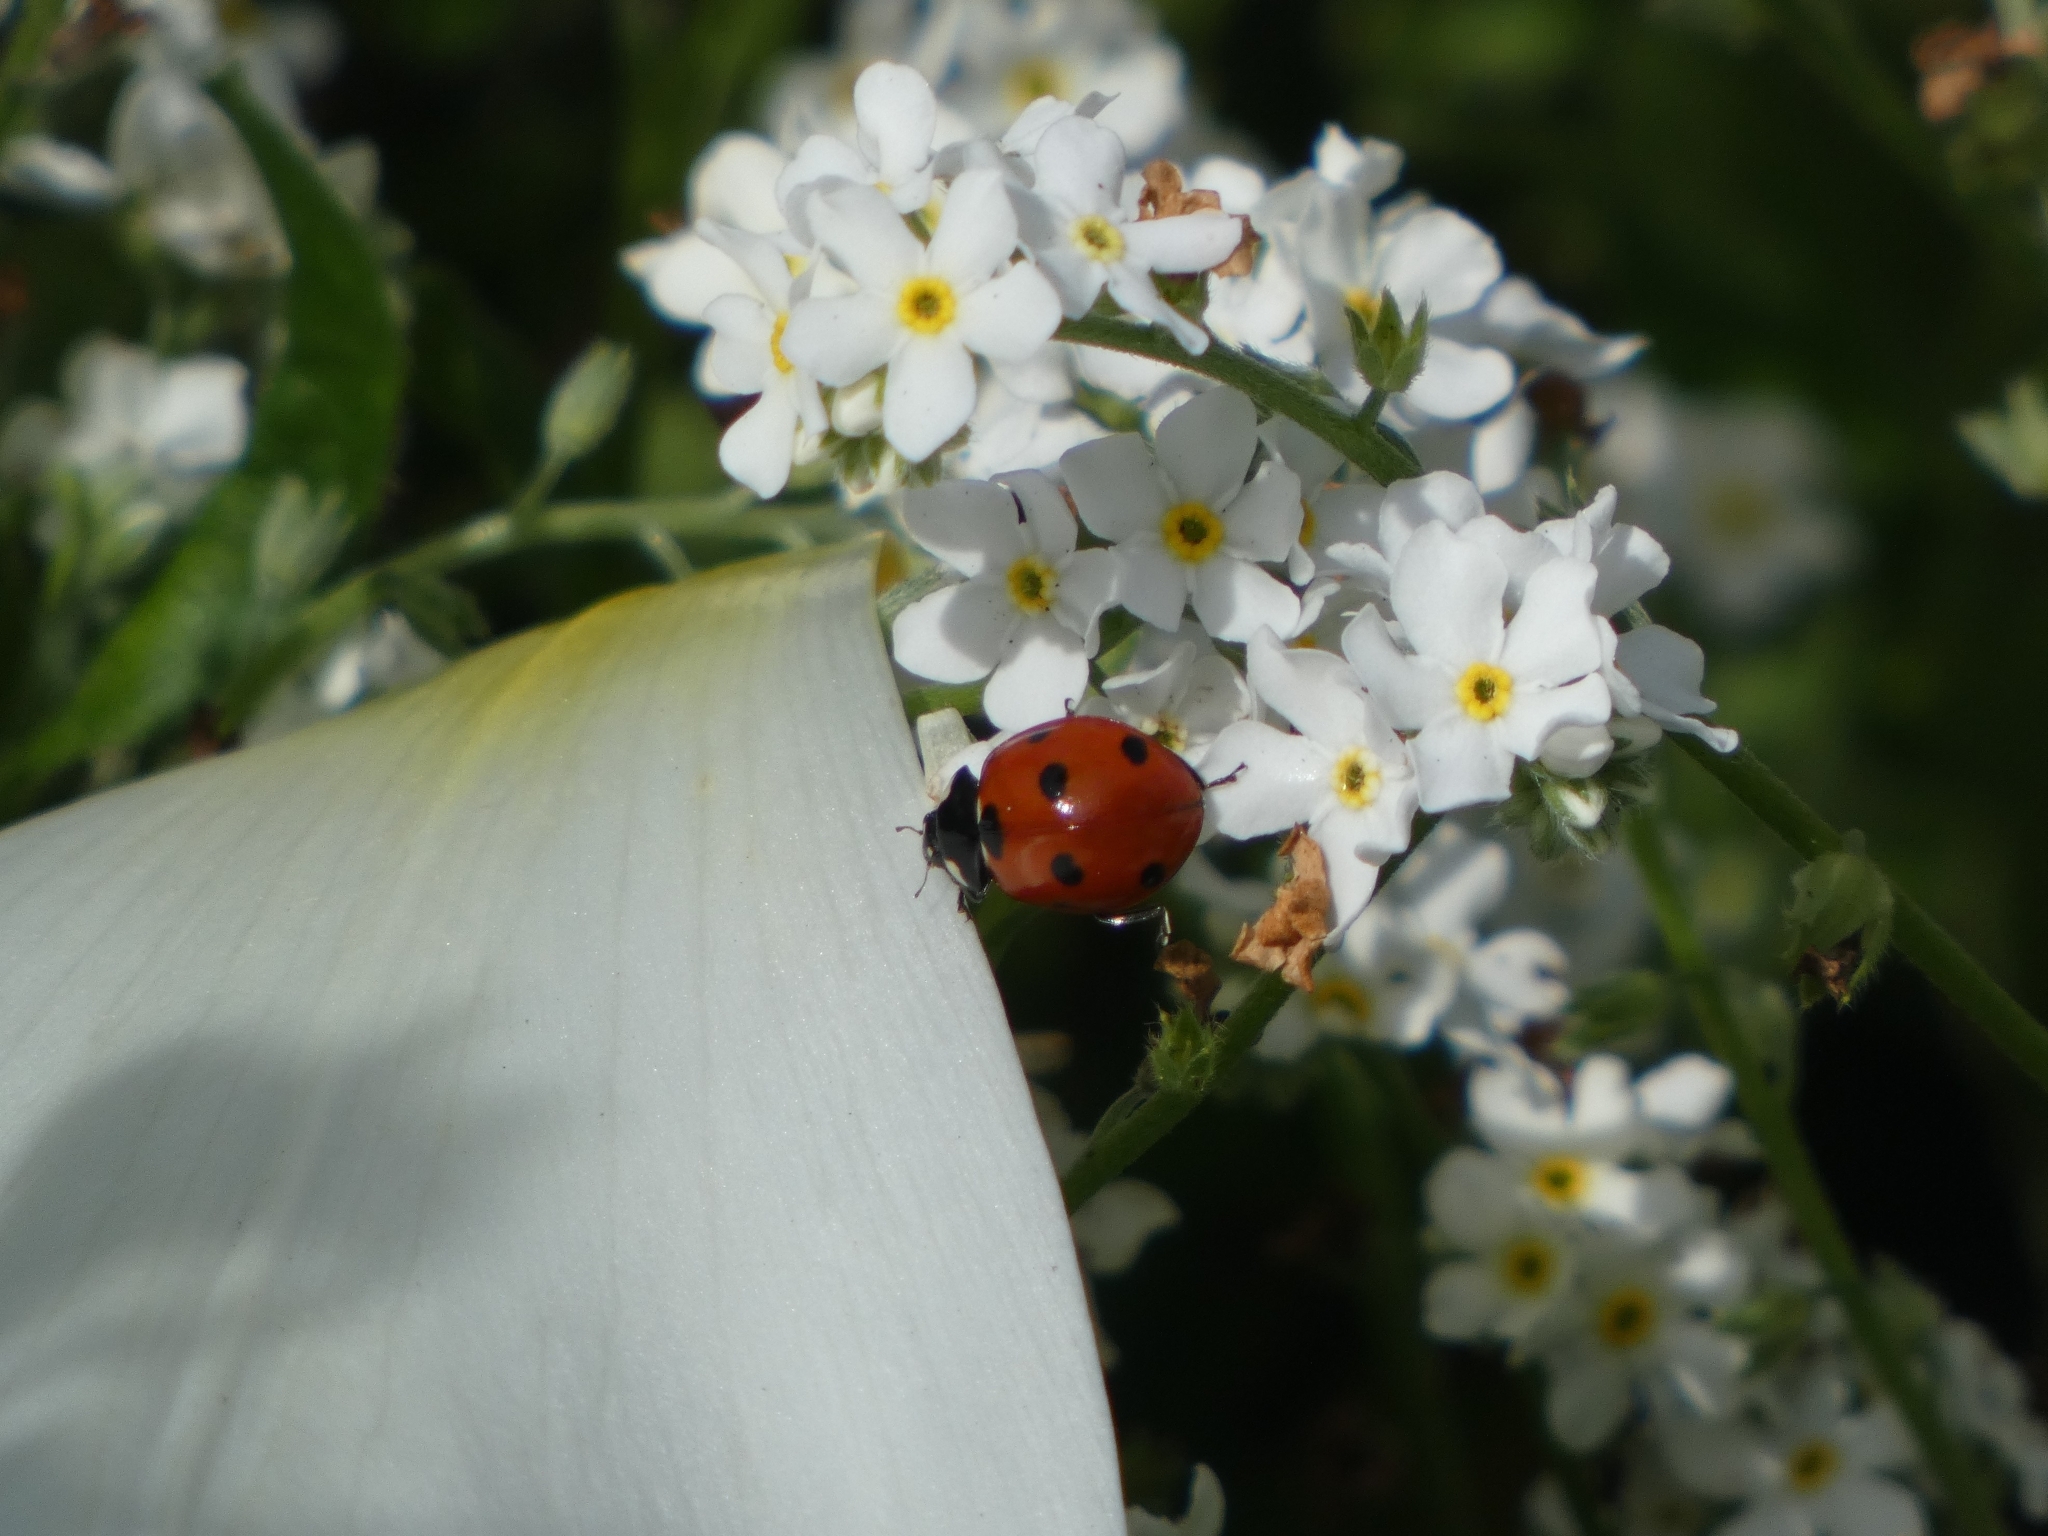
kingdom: Animalia
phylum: Arthropoda
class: Insecta
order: Coleoptera
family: Coccinellidae
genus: Coccinella
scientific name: Coccinella septempunctata
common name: Sevenspotted lady beetle
